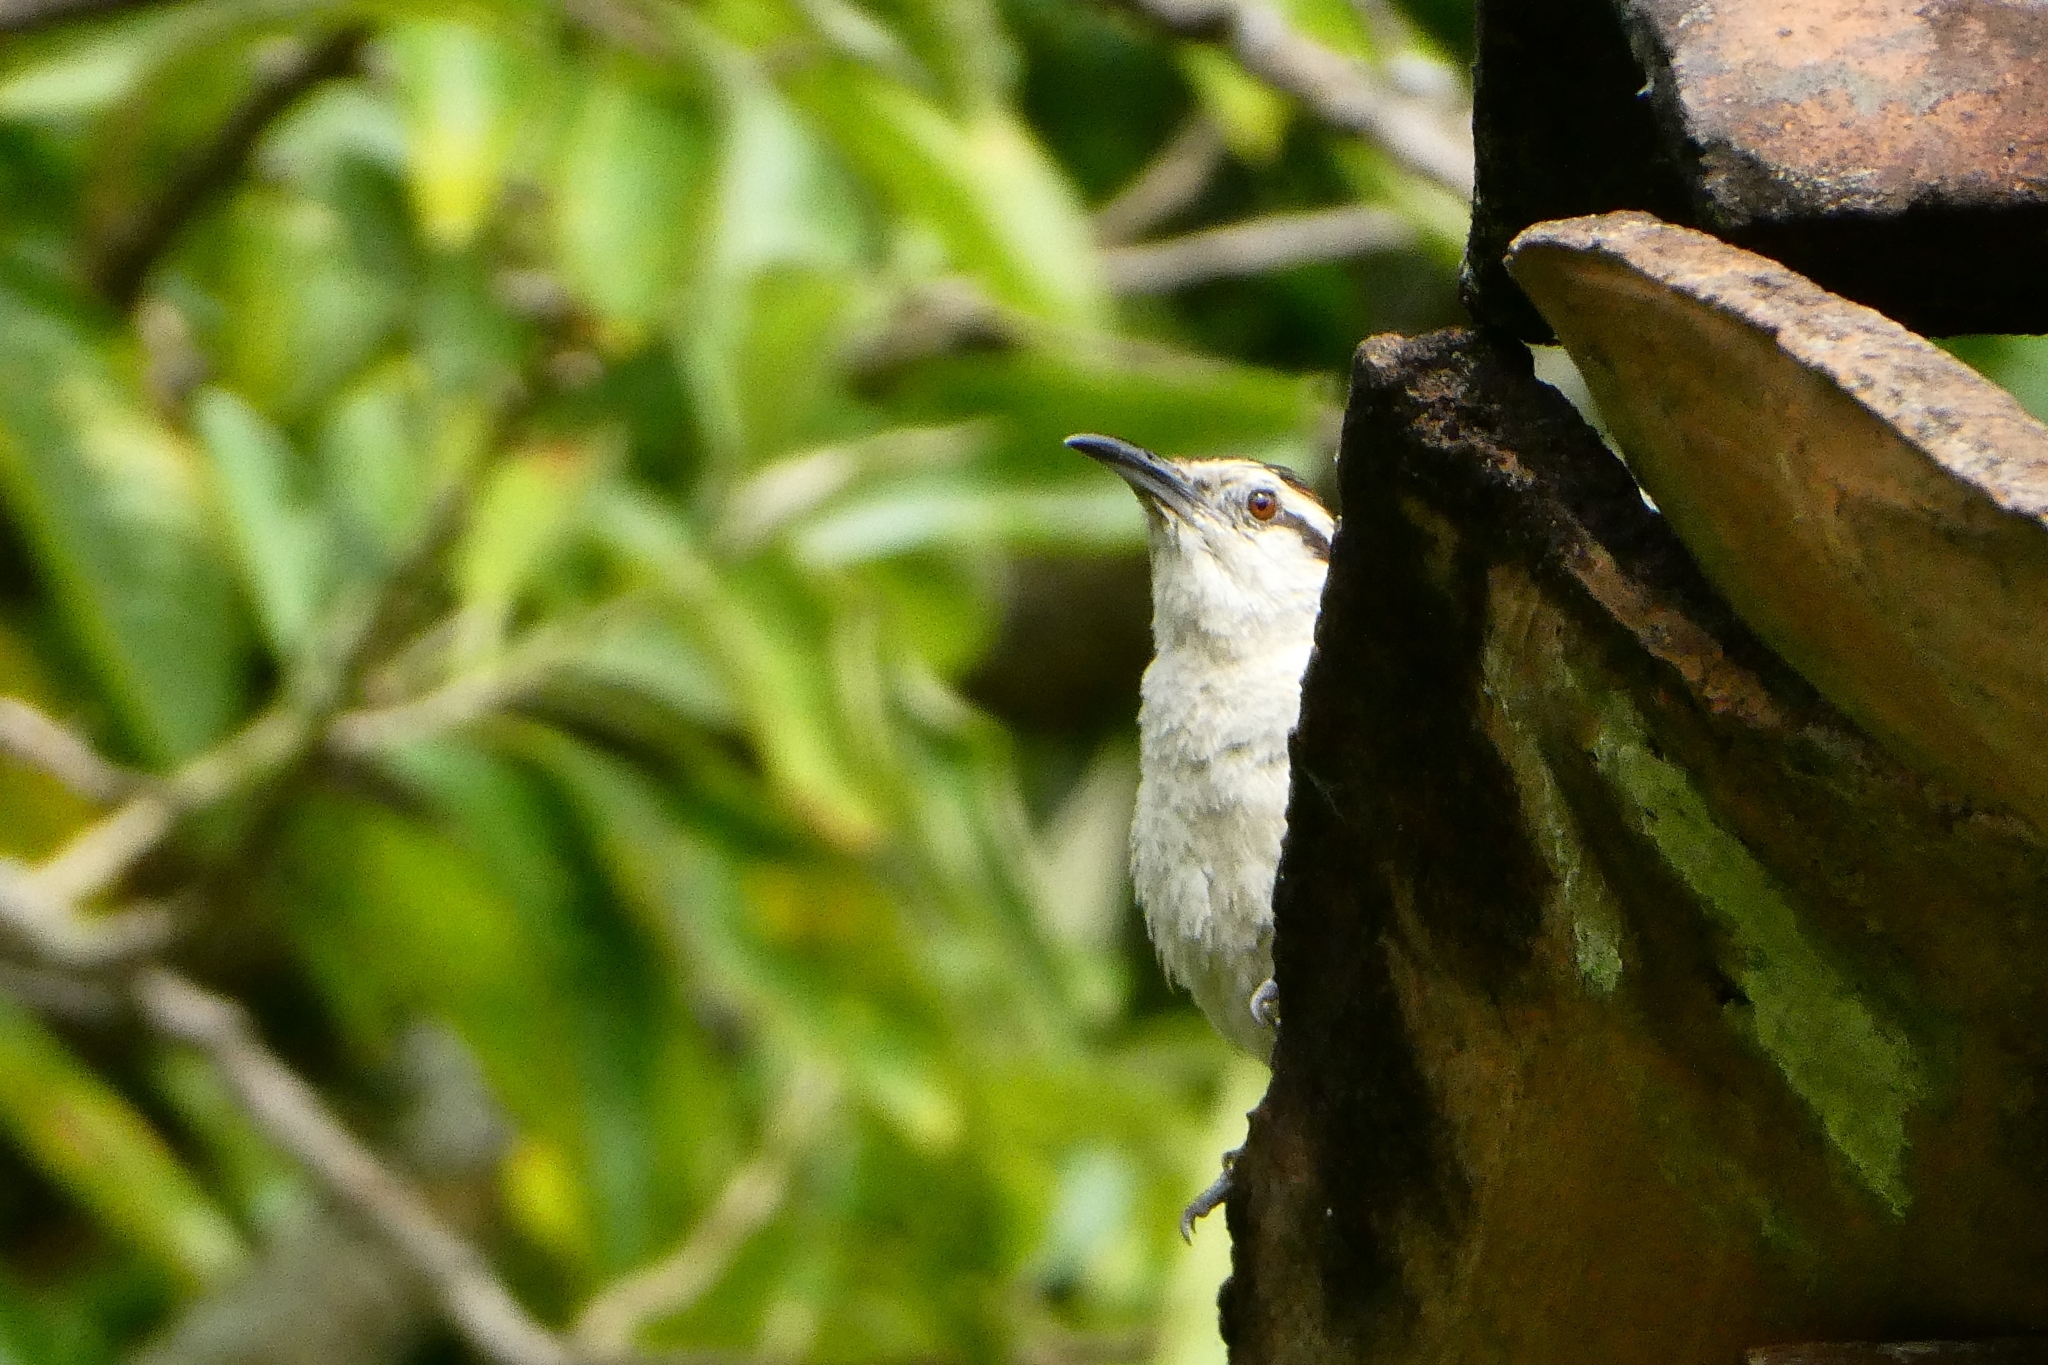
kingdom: Animalia
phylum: Chordata
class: Aves
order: Passeriformes
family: Troglodytidae
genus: Campylorhynchus
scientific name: Campylorhynchus rufinucha
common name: Rufous-naped wren
